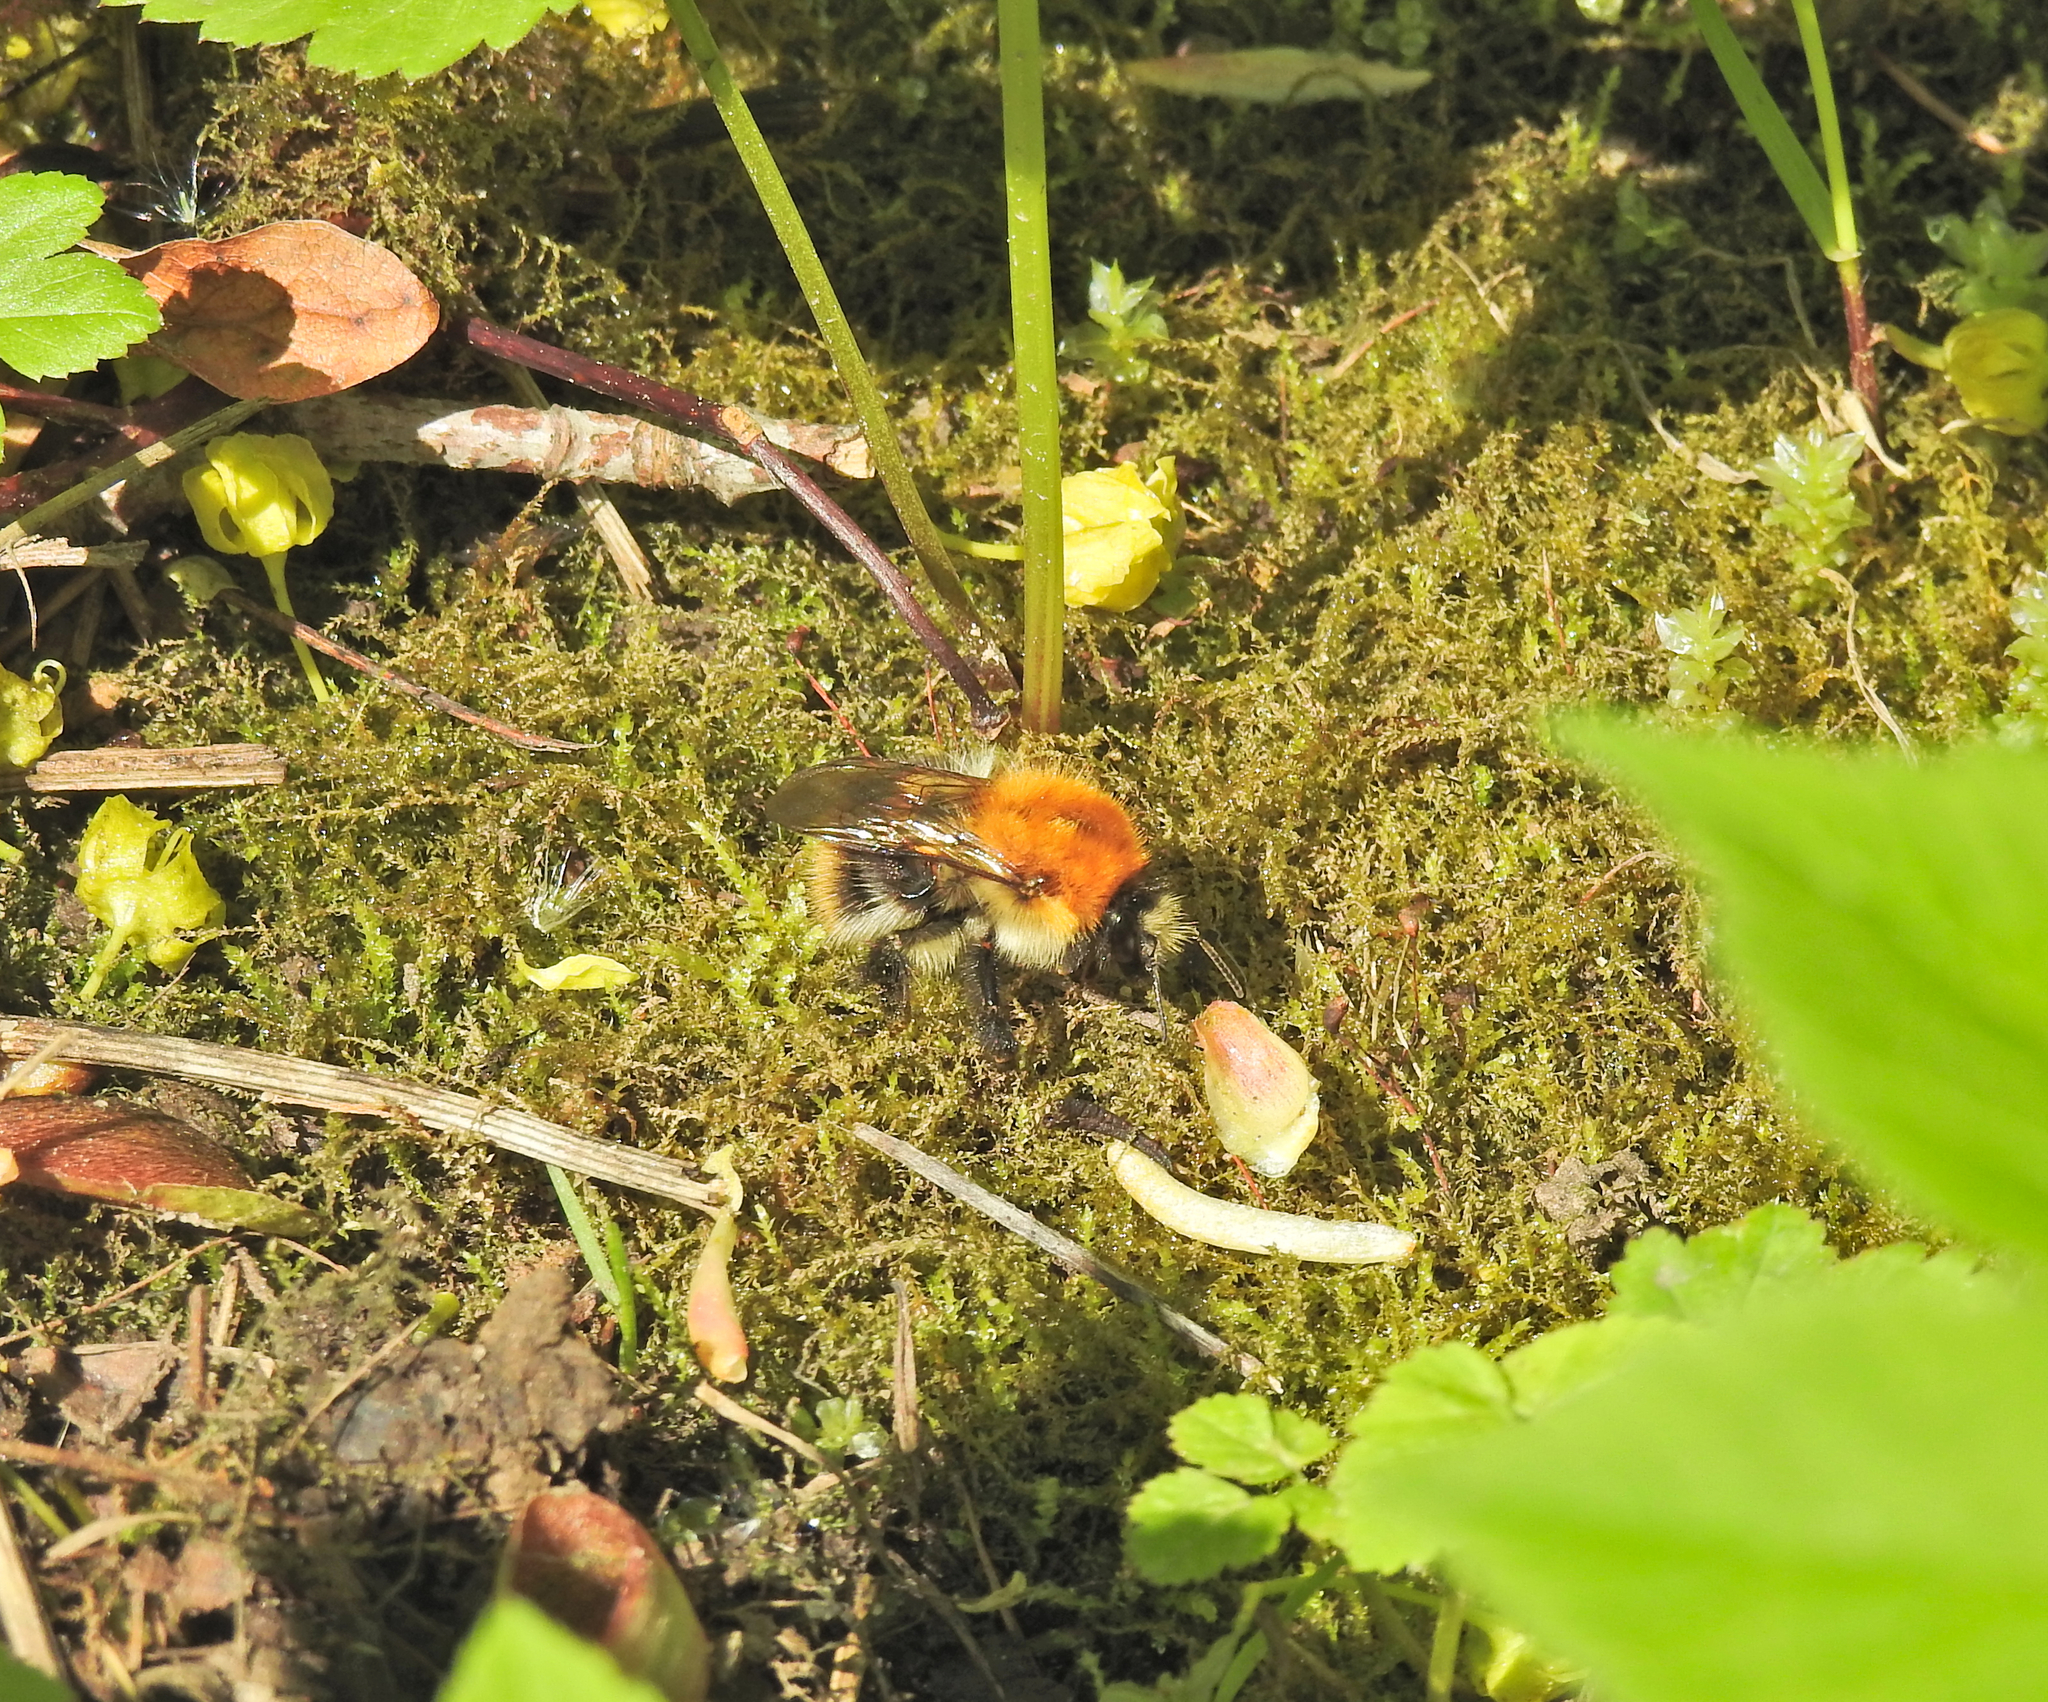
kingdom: Animalia
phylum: Arthropoda
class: Insecta
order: Hymenoptera
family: Apidae
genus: Bombus
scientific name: Bombus pascuorum
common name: Common carder bee
